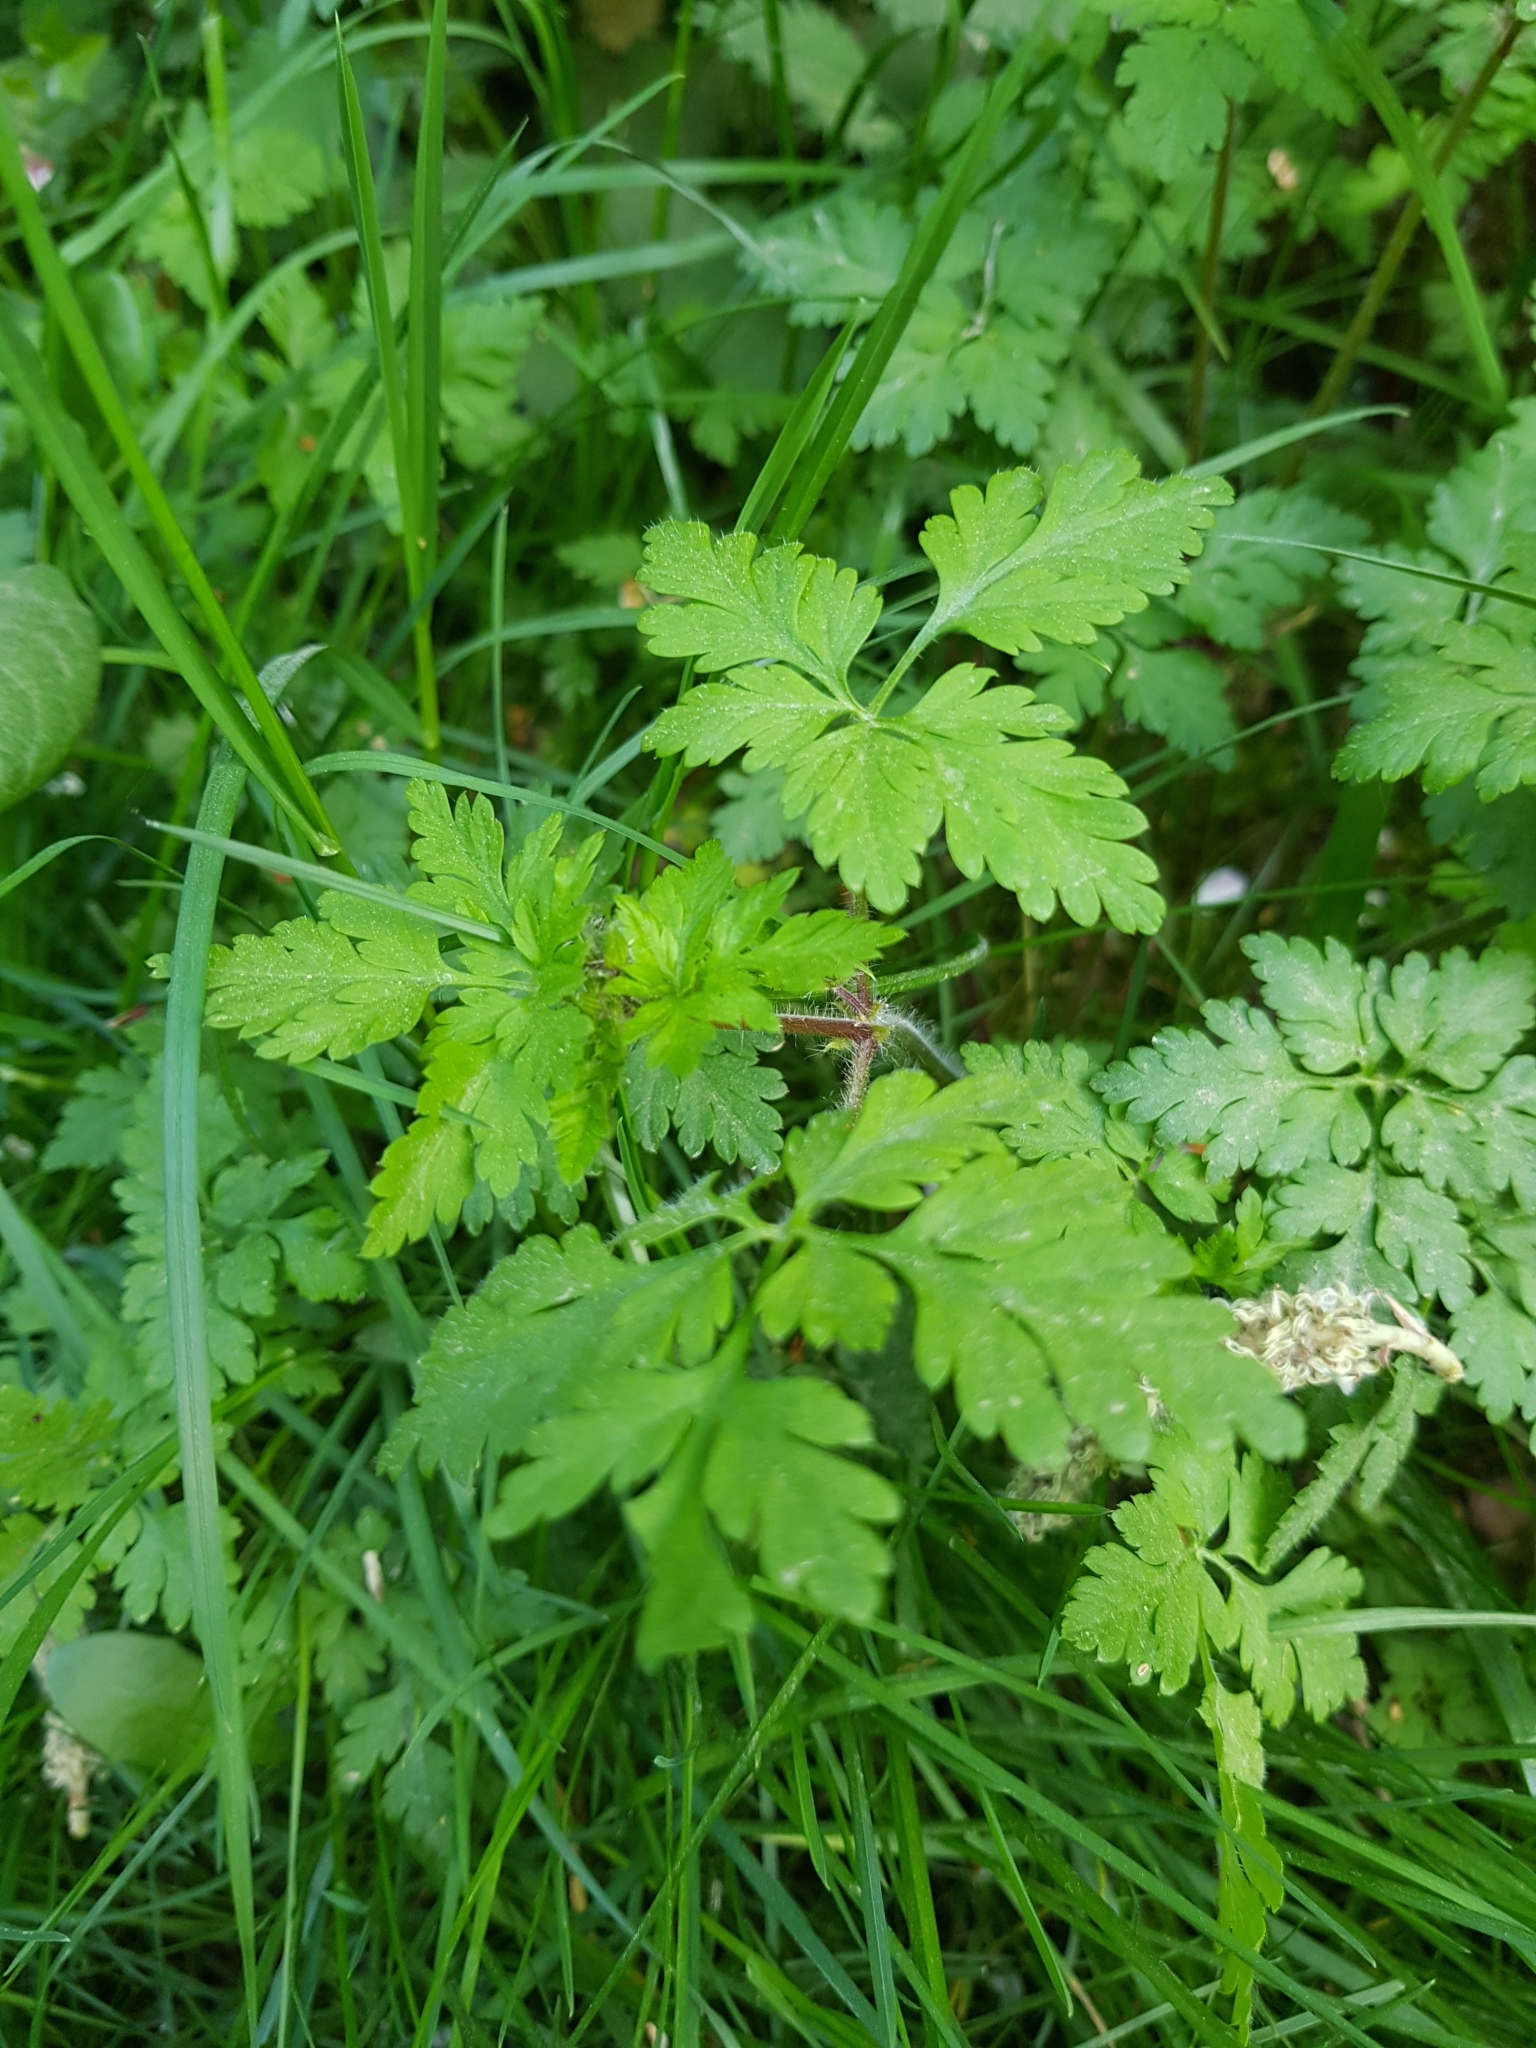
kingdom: Plantae
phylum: Tracheophyta
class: Magnoliopsida
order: Geraniales
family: Geraniaceae
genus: Geranium
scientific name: Geranium robertianum
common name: Herb-robert
